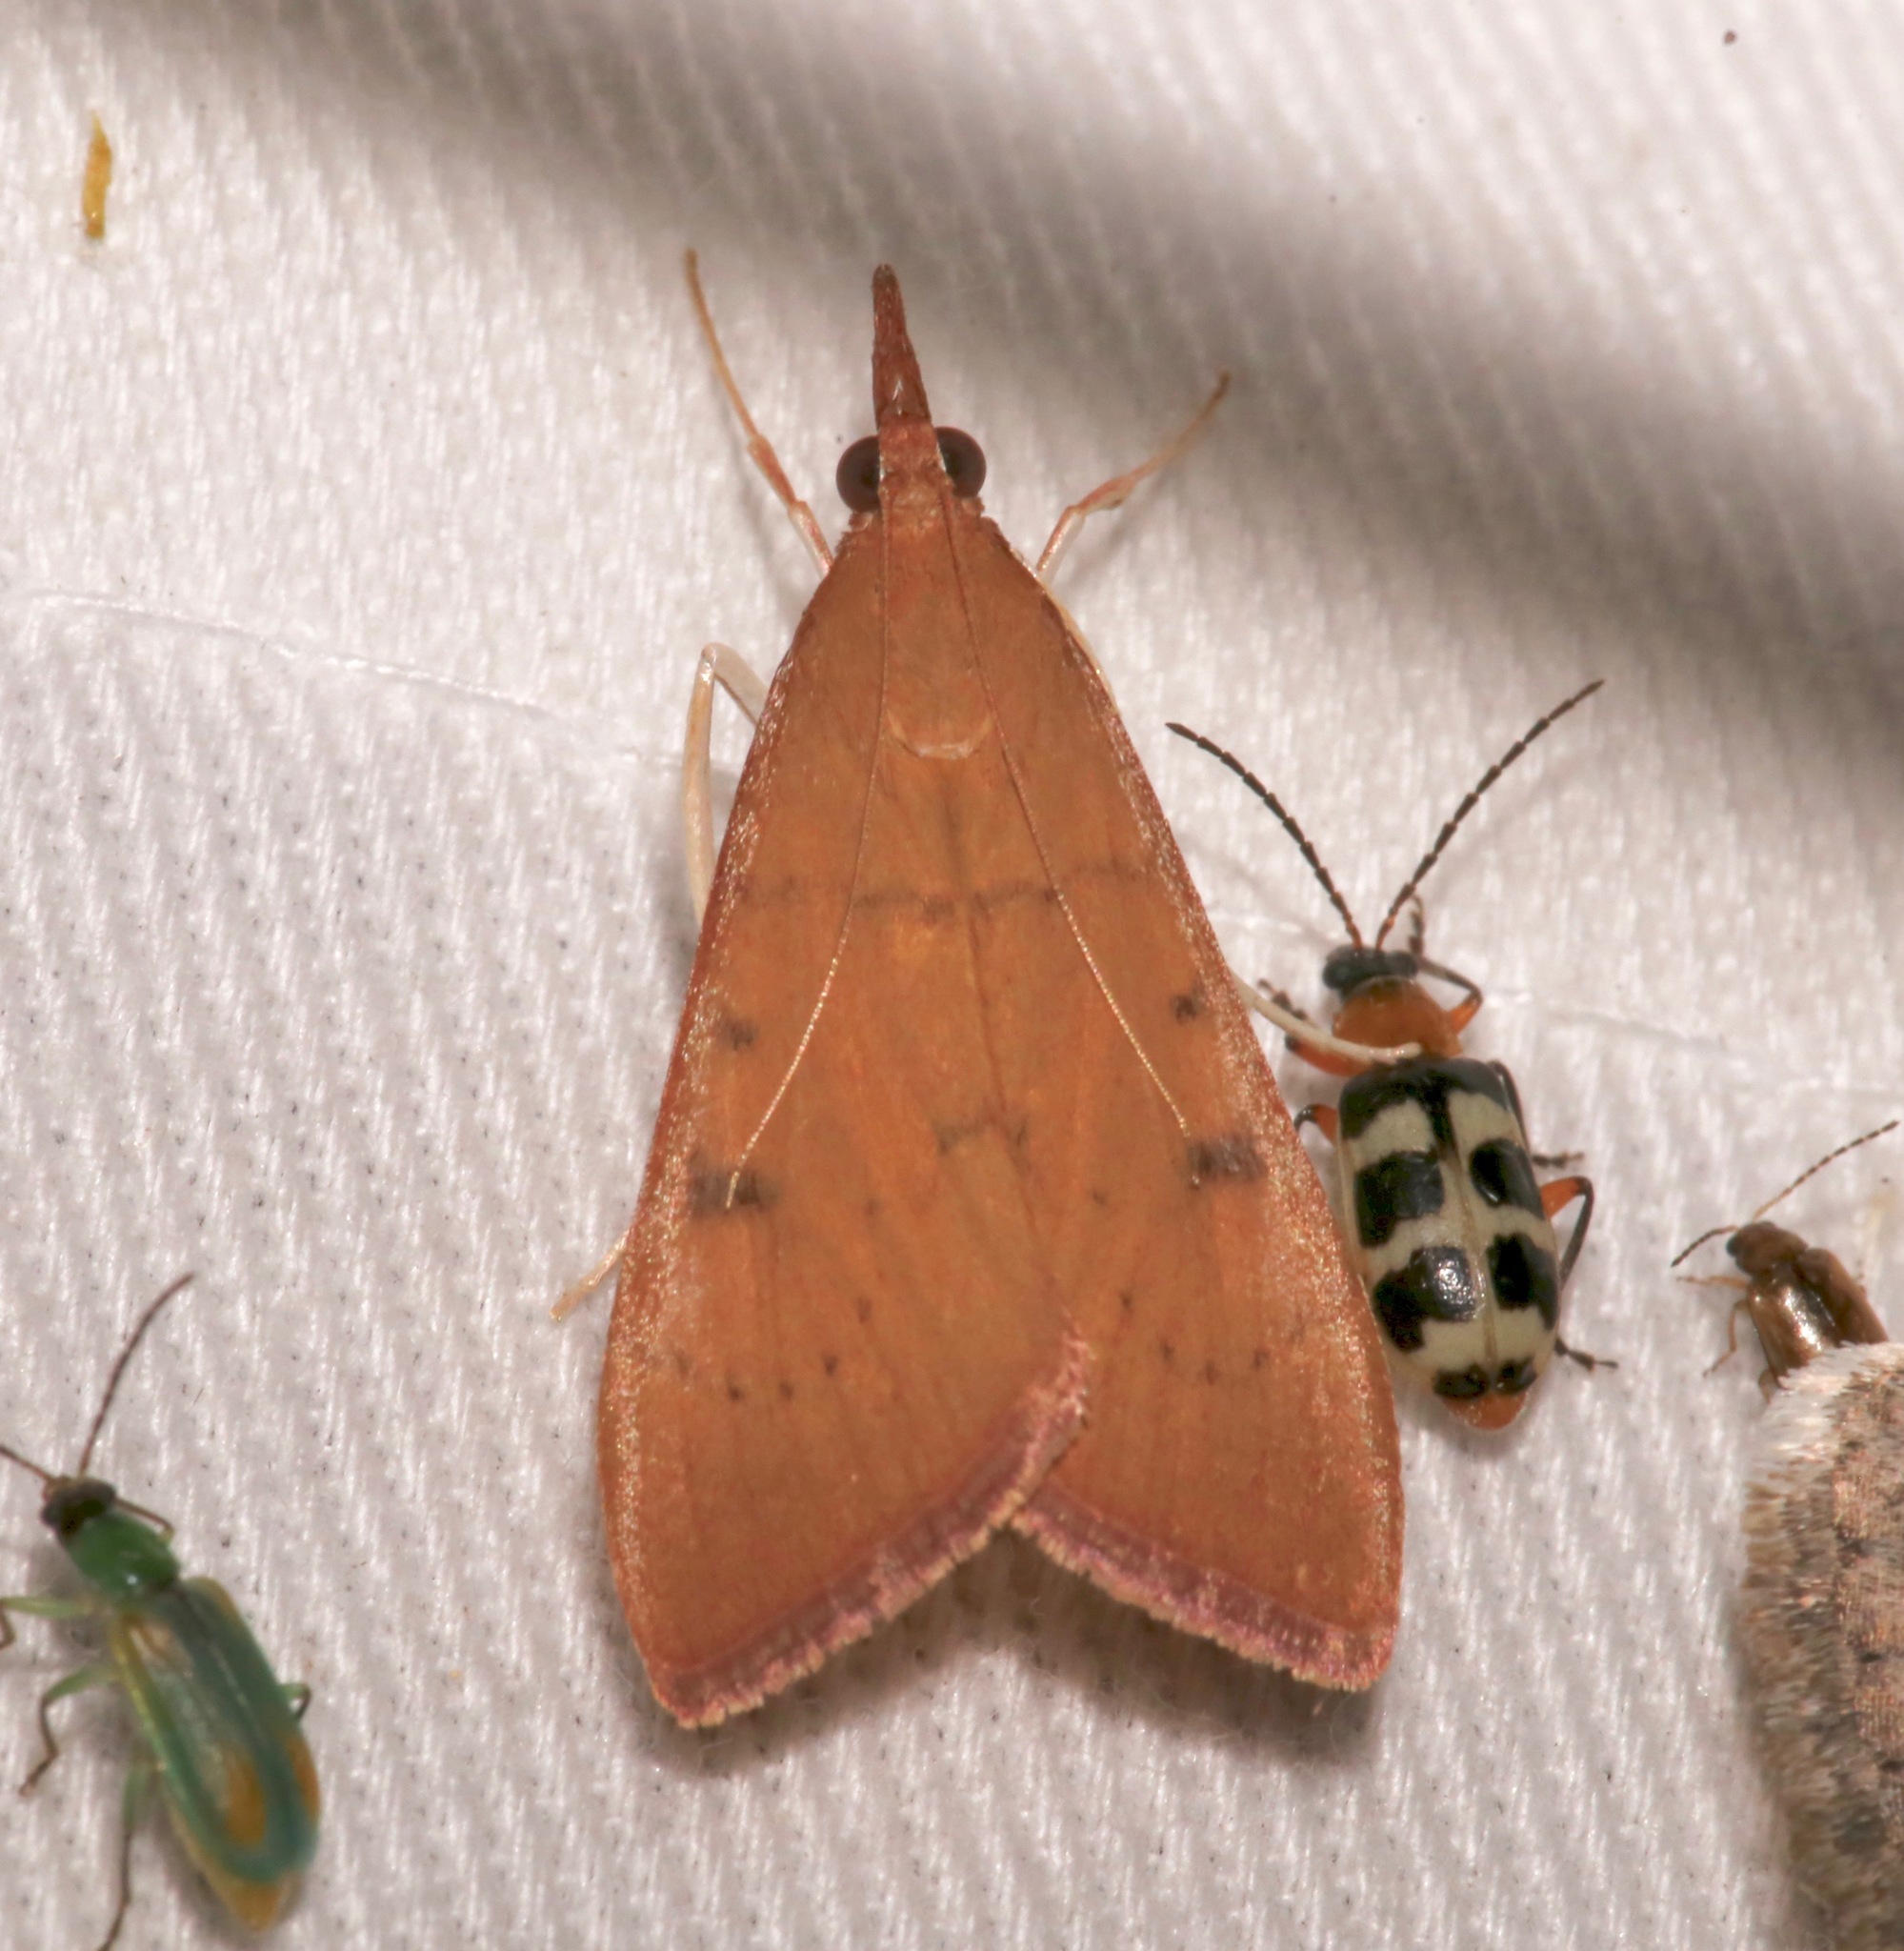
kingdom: Animalia
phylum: Arthropoda
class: Insecta
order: Lepidoptera
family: Crambidae
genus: Uresiphita
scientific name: Uresiphita reversalis
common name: Genista broom moth
